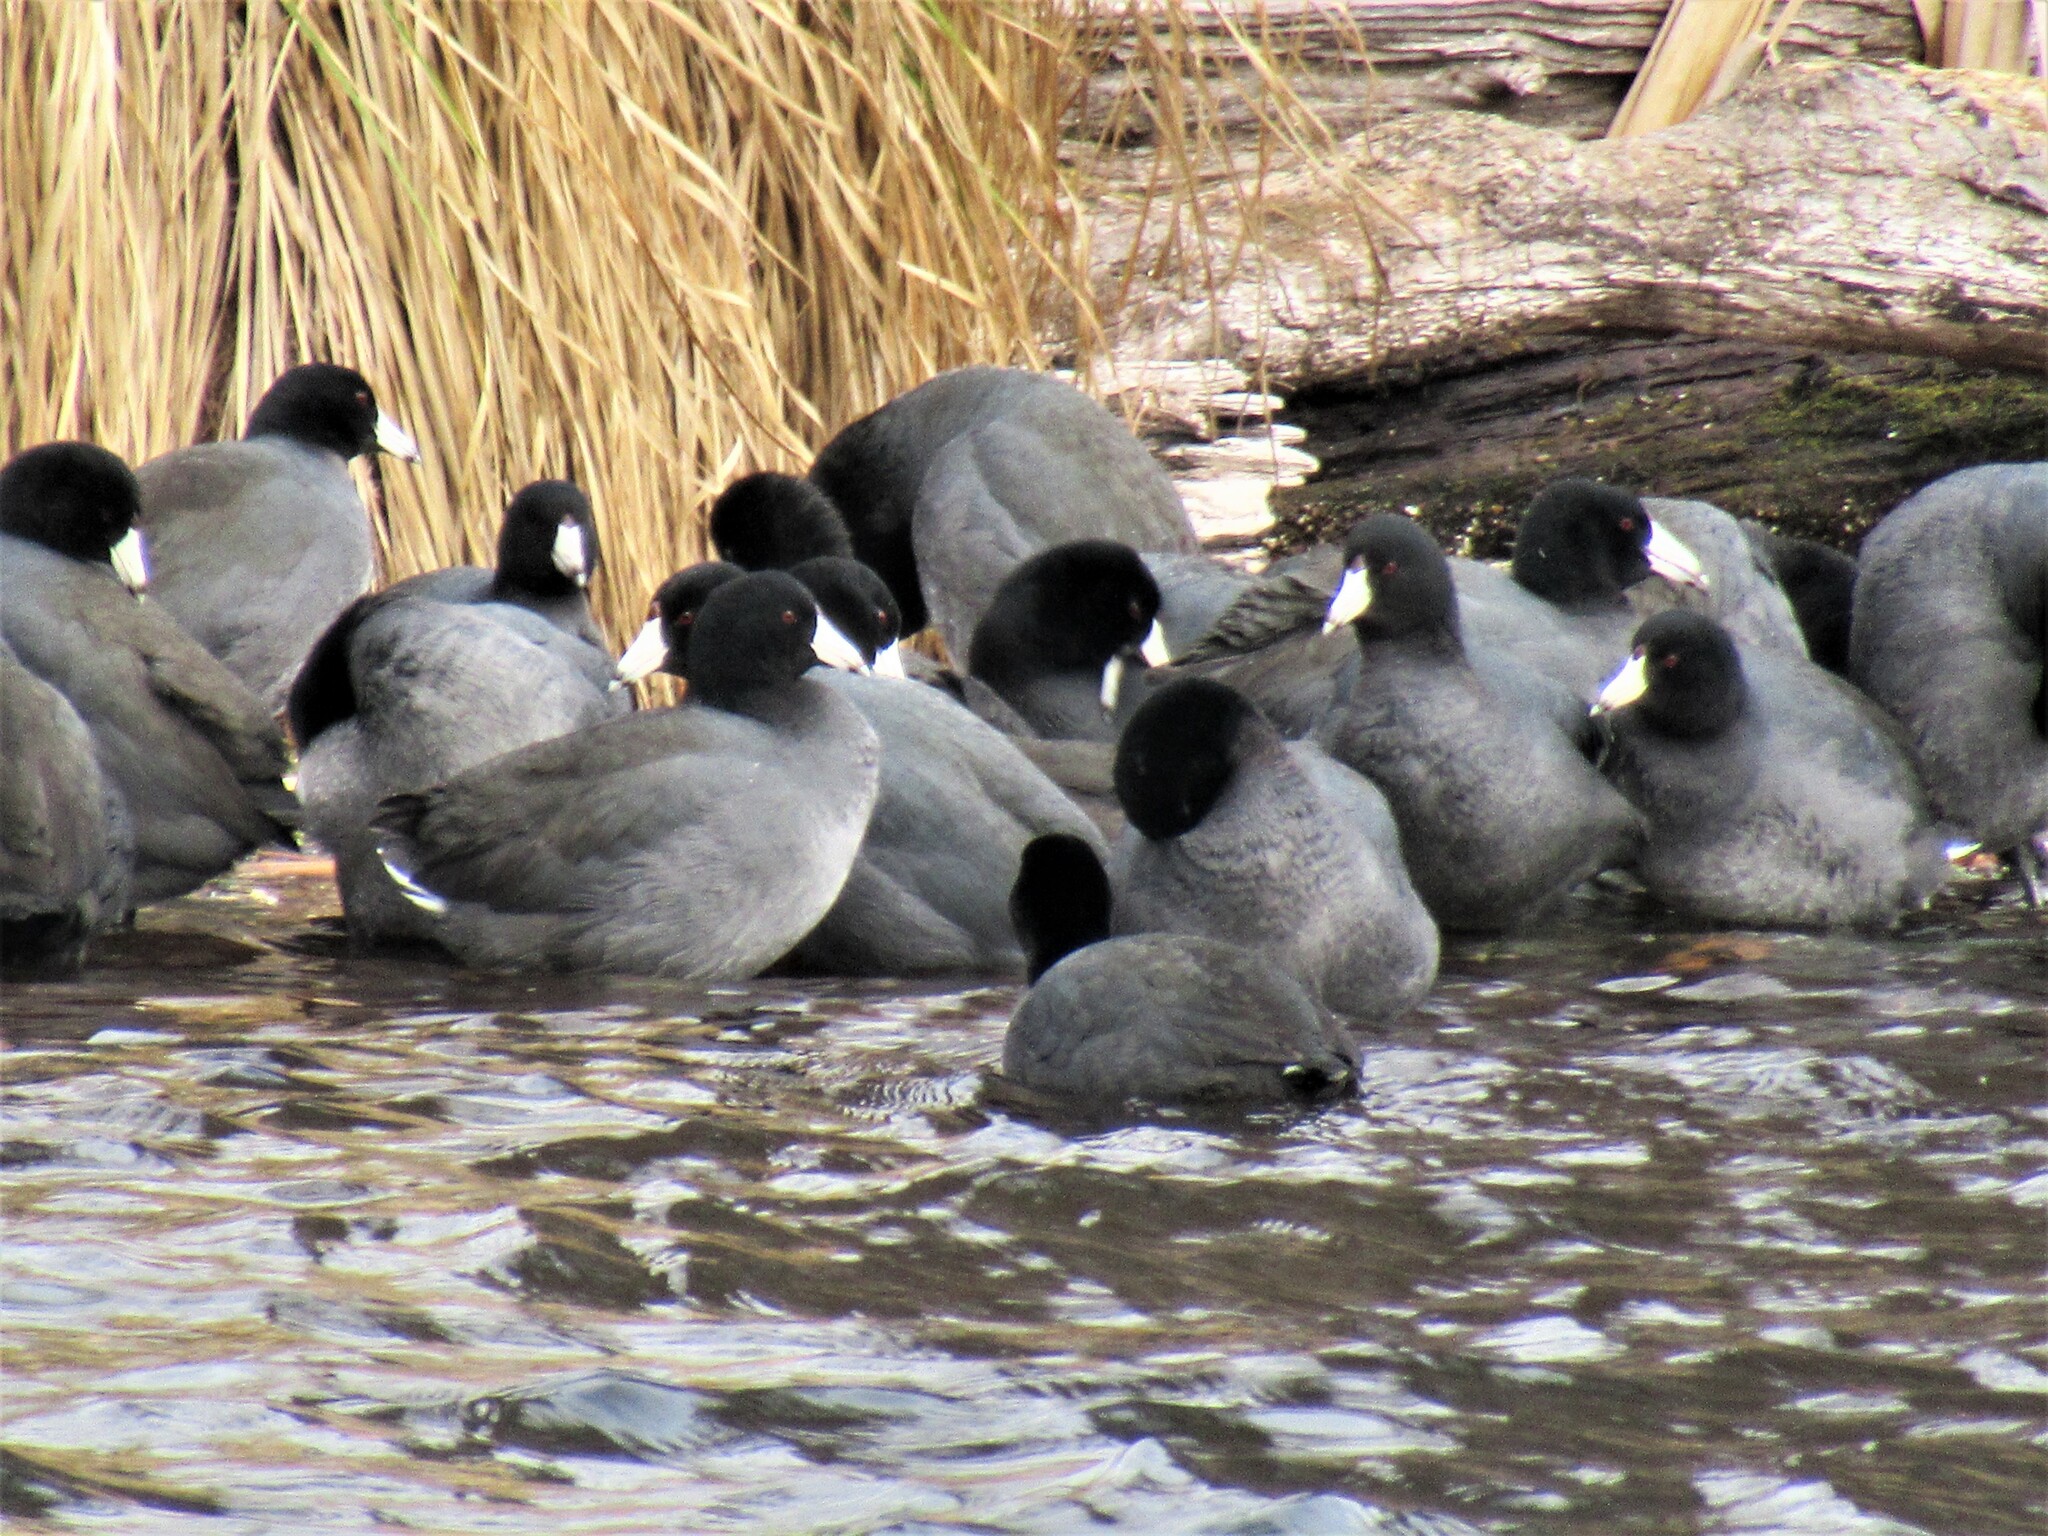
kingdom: Animalia
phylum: Chordata
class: Aves
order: Gruiformes
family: Rallidae
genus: Fulica
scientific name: Fulica americana
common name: American coot
